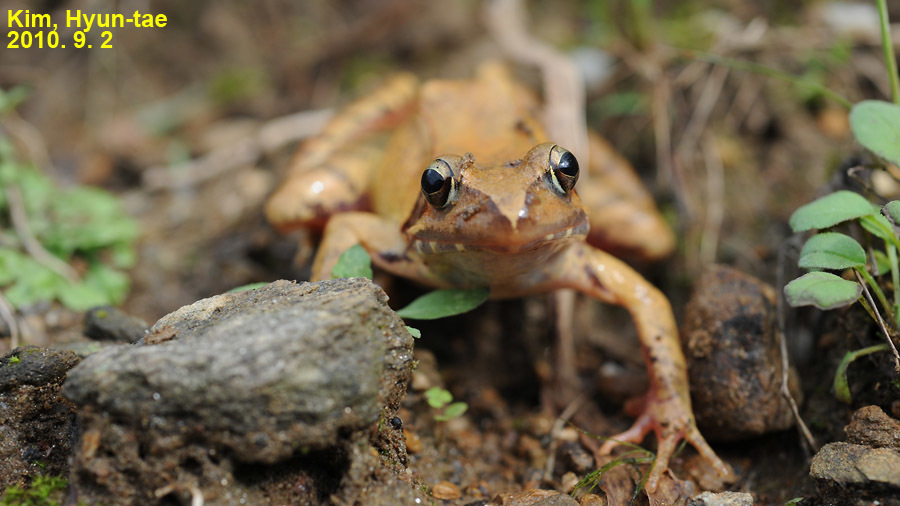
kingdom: Animalia
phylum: Chordata
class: Amphibia
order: Anura
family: Ranidae
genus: Rana
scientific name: Rana uenoi
